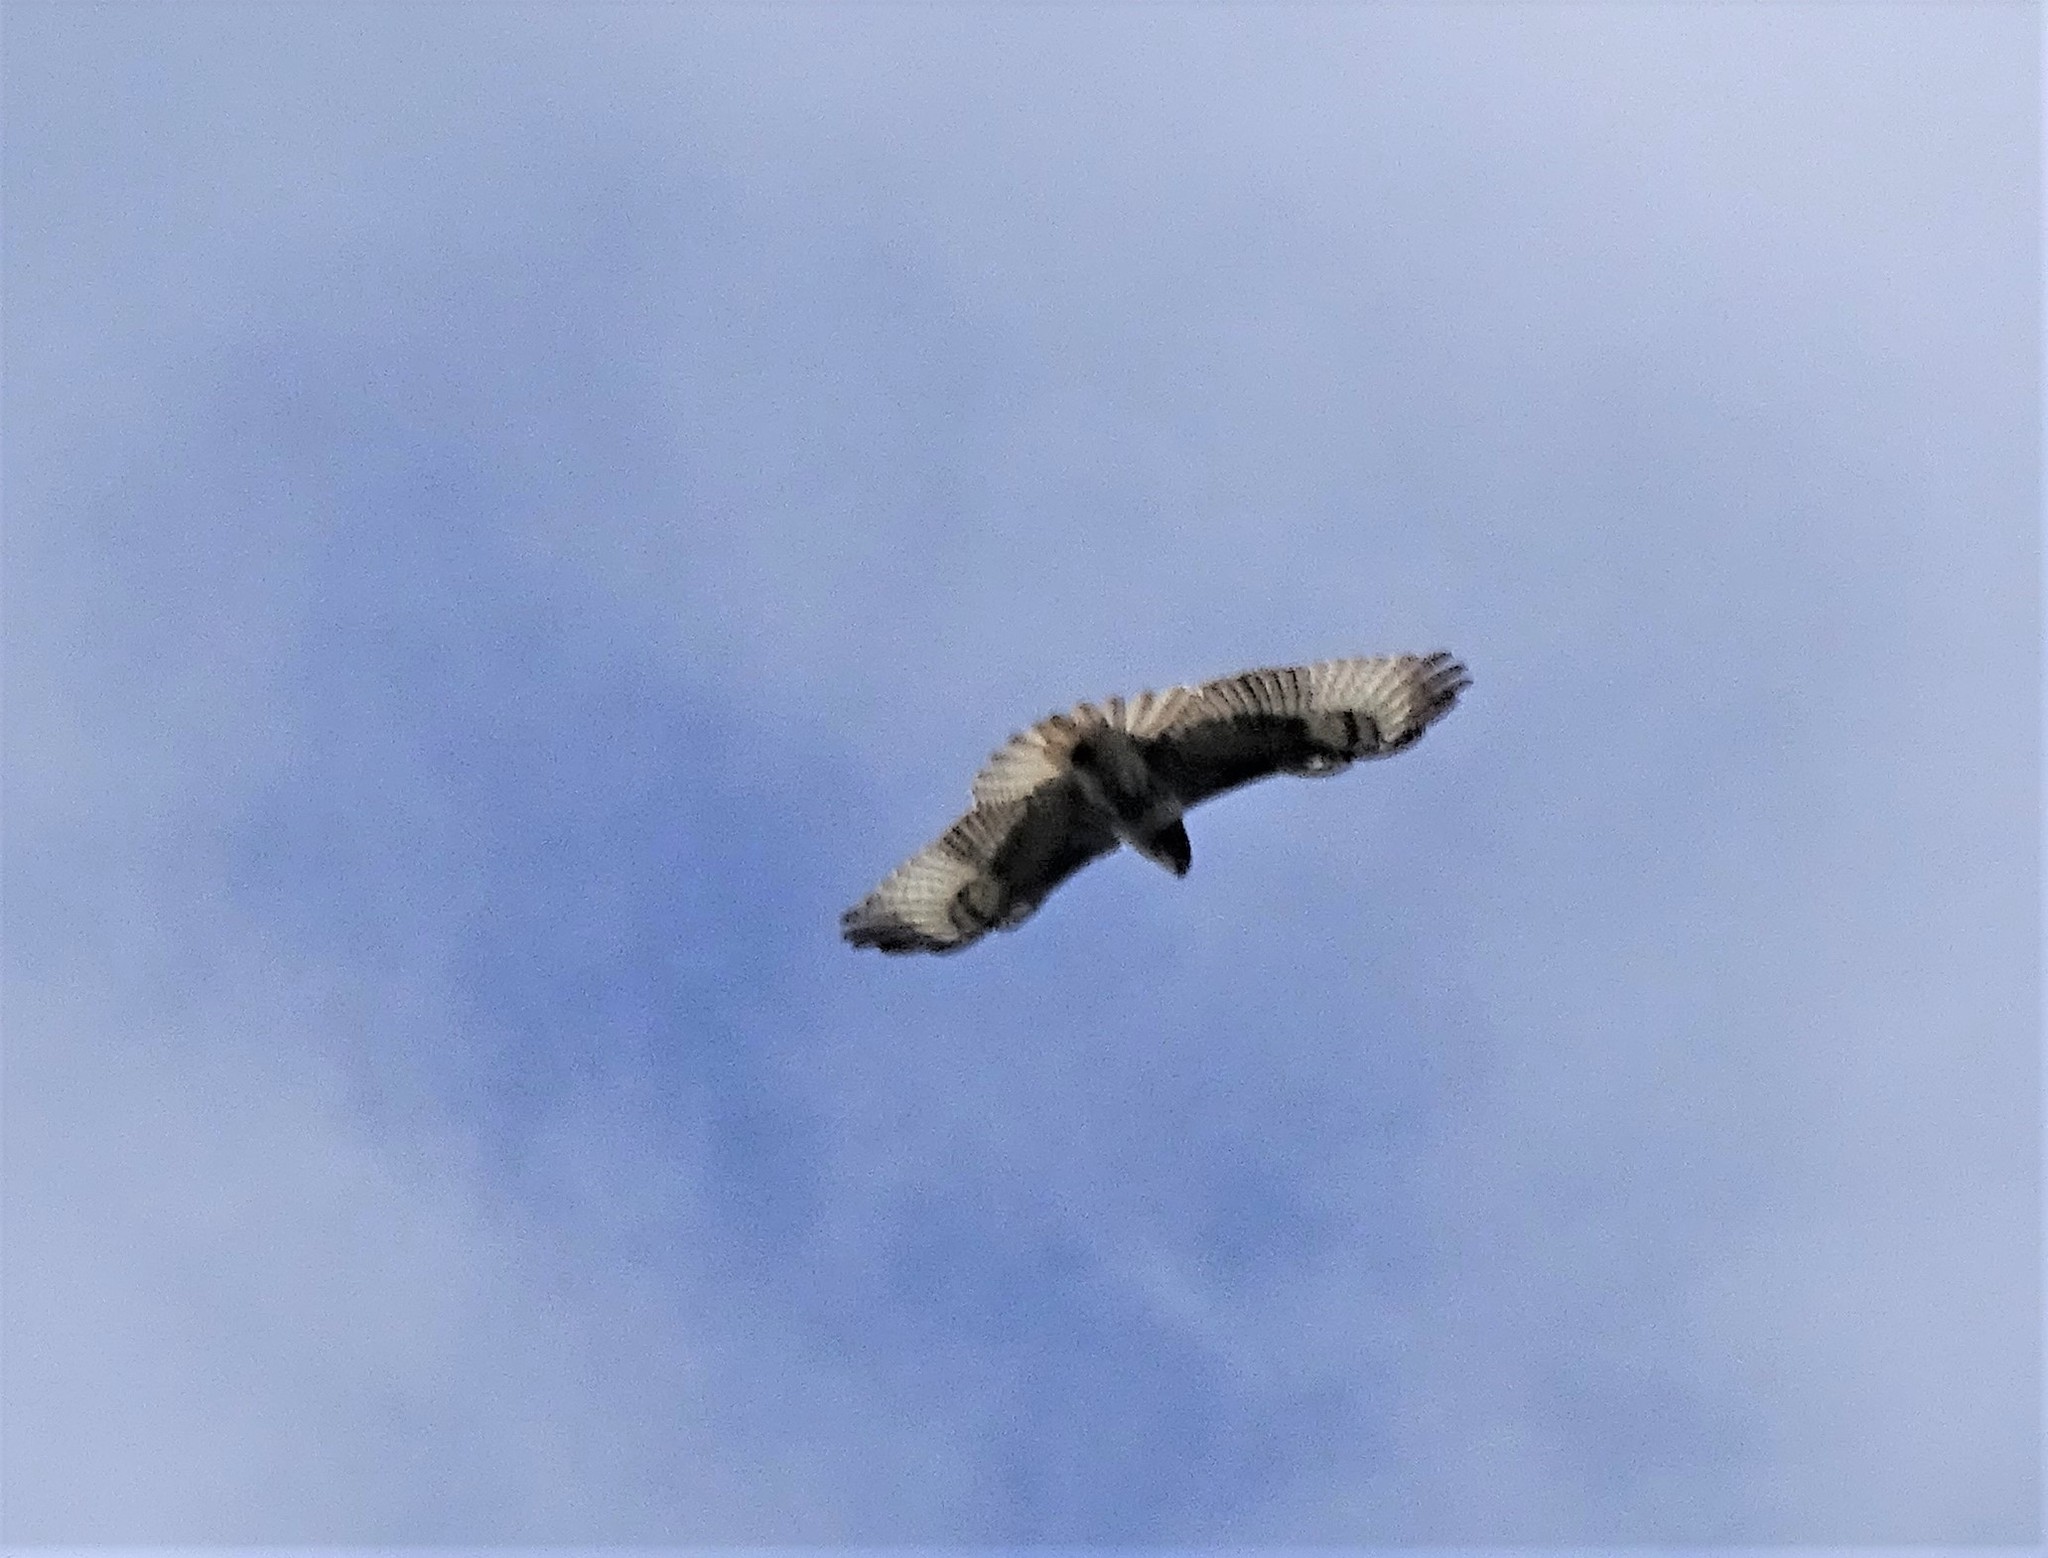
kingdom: Animalia
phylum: Chordata
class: Aves
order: Accipitriformes
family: Accipitridae
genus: Buteo
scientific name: Buteo jamaicensis
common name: Red-tailed hawk
